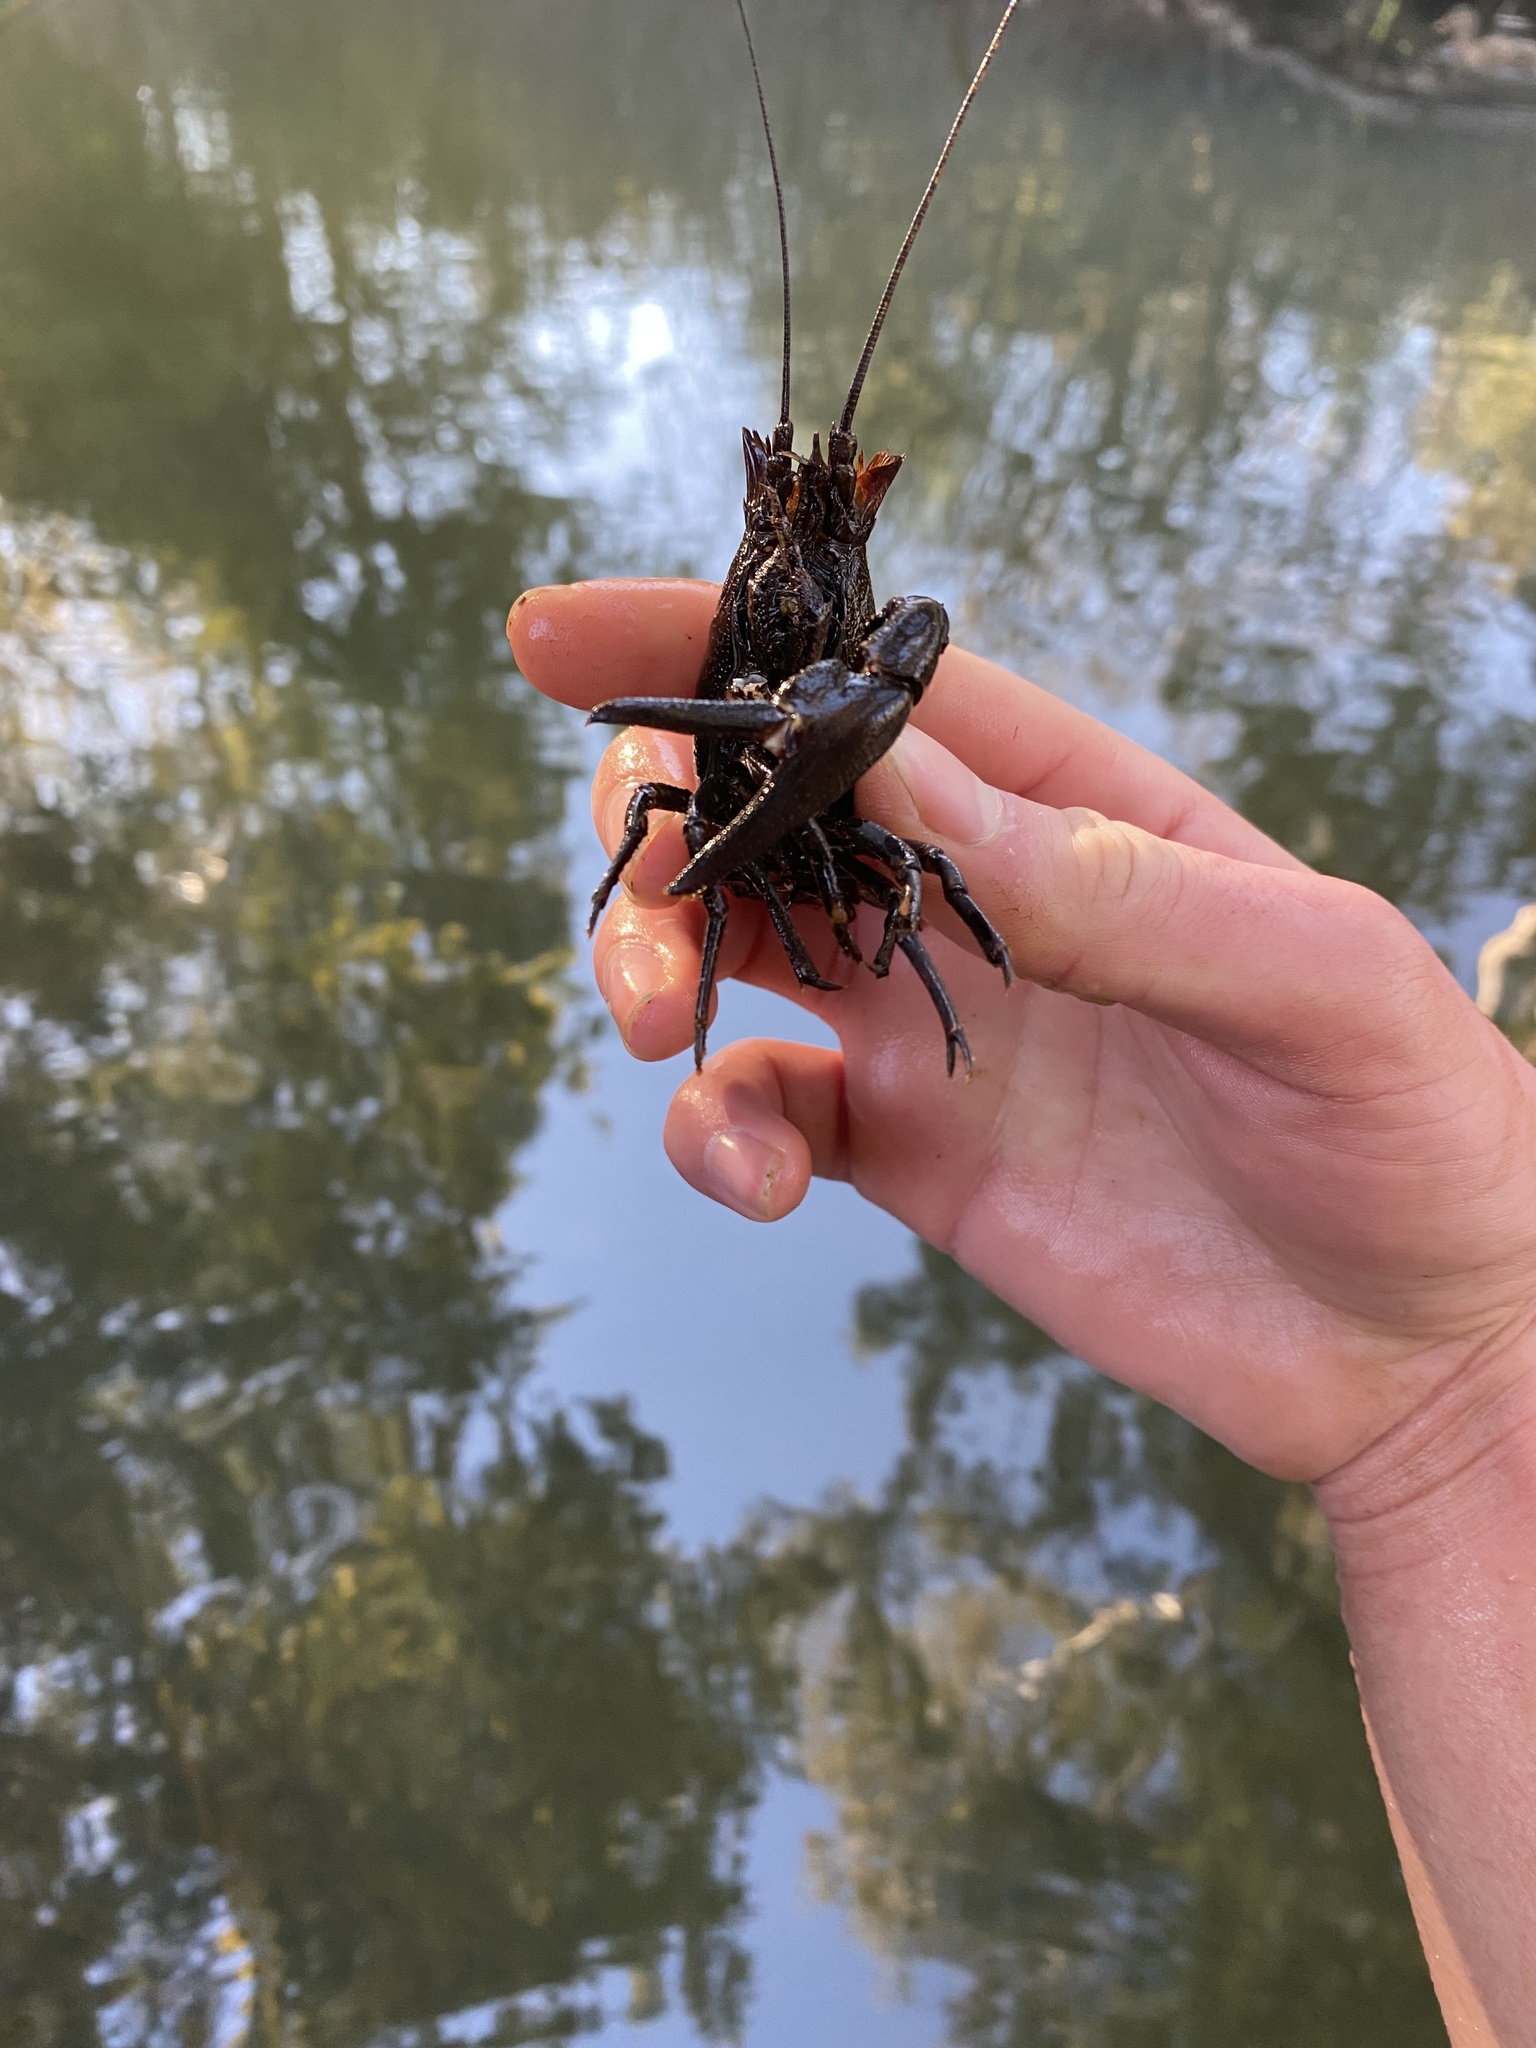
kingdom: Animalia
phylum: Arthropoda
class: Malacostraca
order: Decapoda
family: Astacidae
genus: Pacifastacus
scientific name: Pacifastacus leniusculus
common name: Signal crayfish
